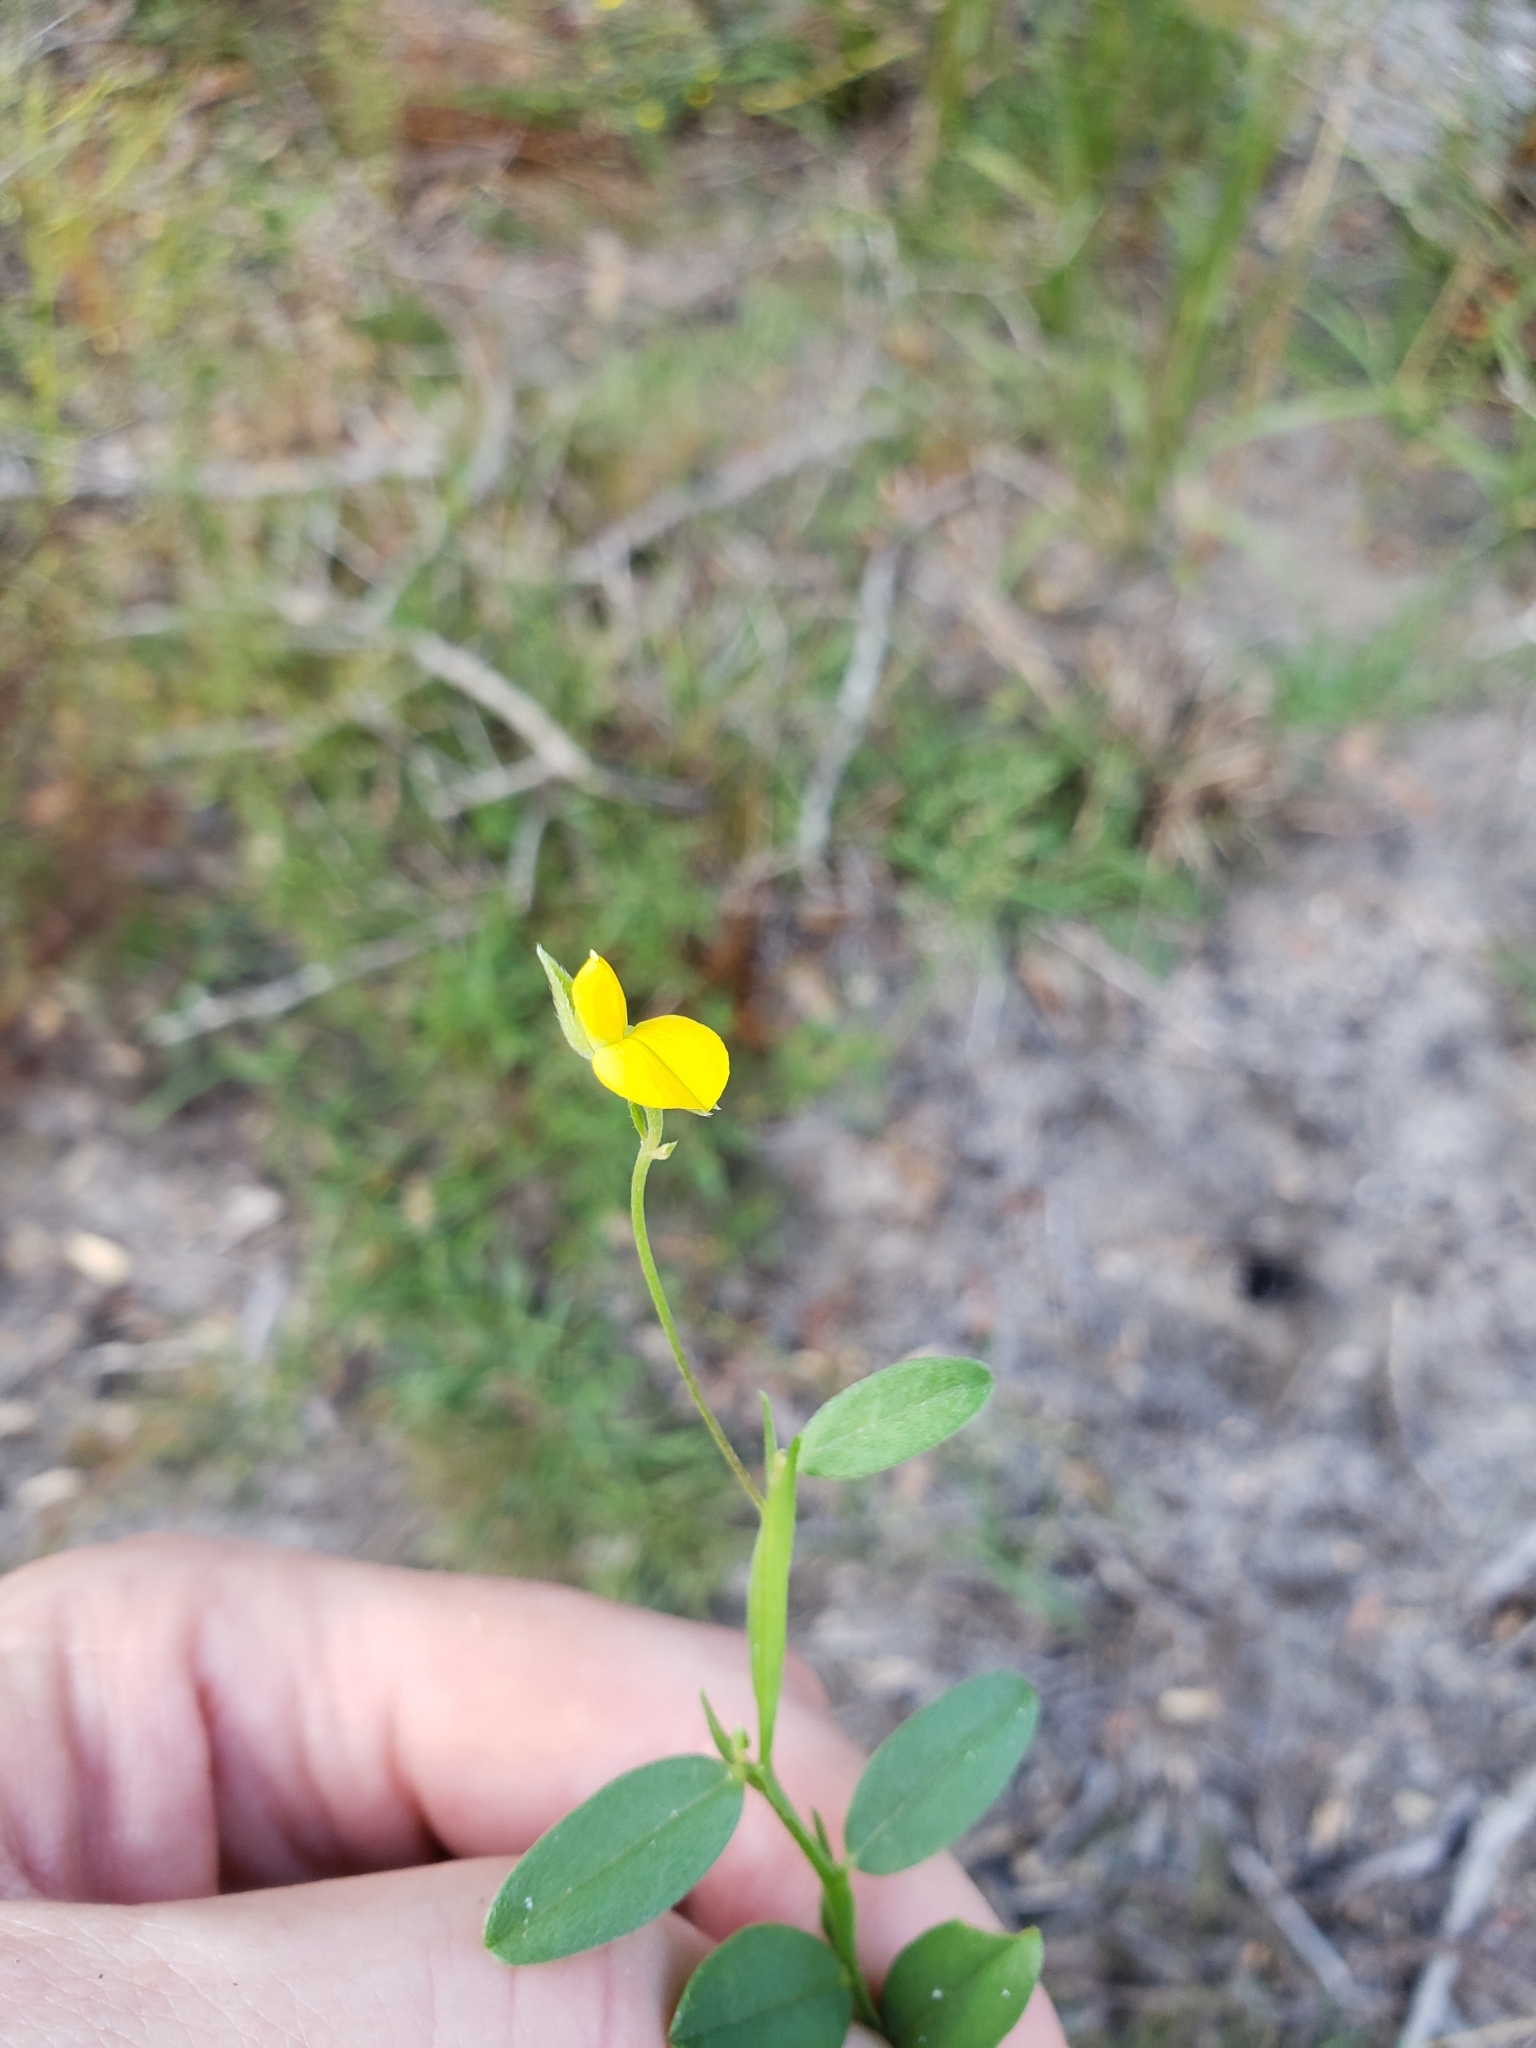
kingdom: Plantae
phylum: Tracheophyta
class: Magnoliopsida
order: Fabales
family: Fabaceae
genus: Crotalaria
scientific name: Crotalaria rotundifolia
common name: Prostrate rattlebox
